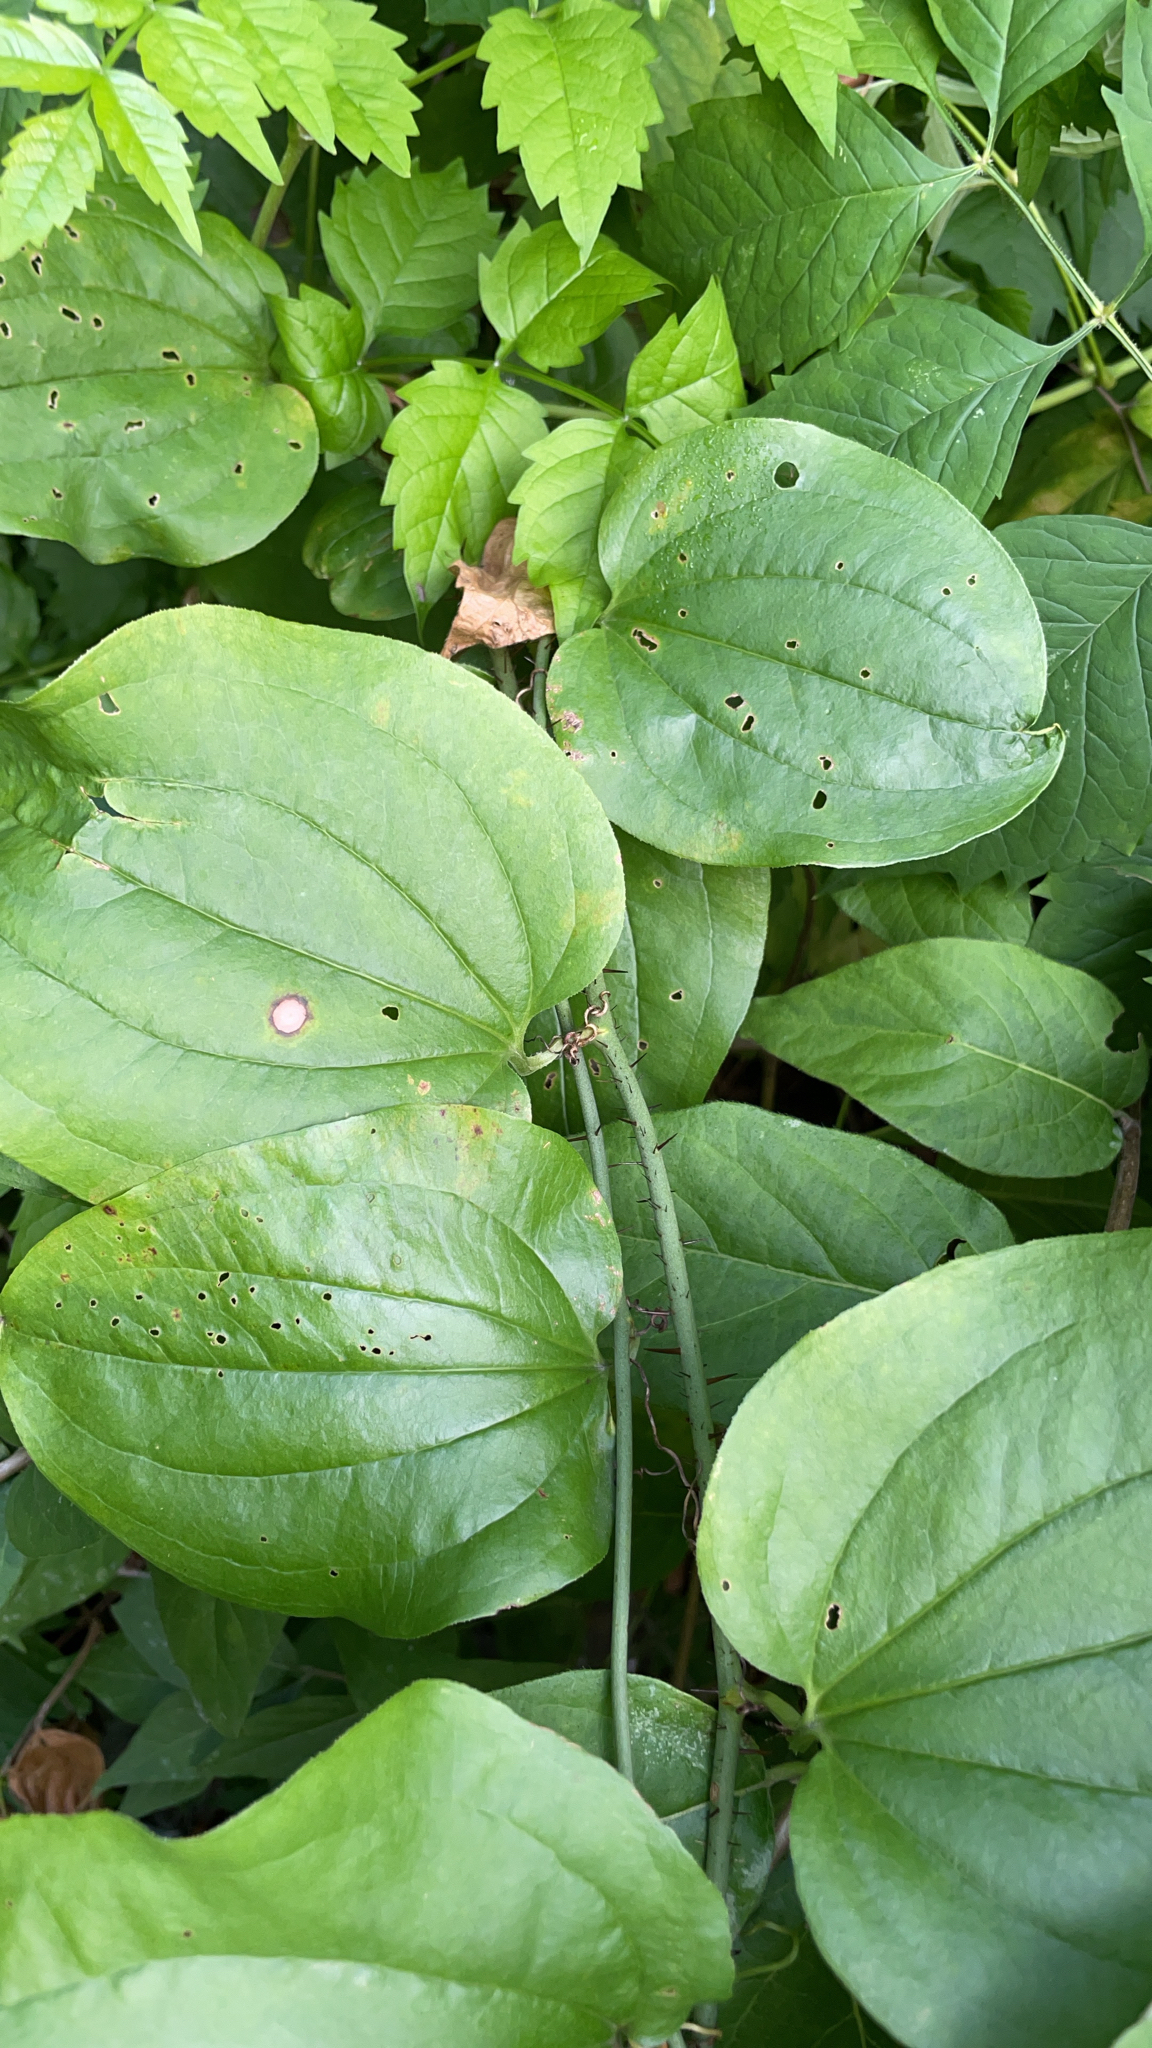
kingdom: Plantae
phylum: Tracheophyta
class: Liliopsida
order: Liliales
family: Smilacaceae
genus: Smilax
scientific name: Smilax tamnoides
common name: Hellfetter
